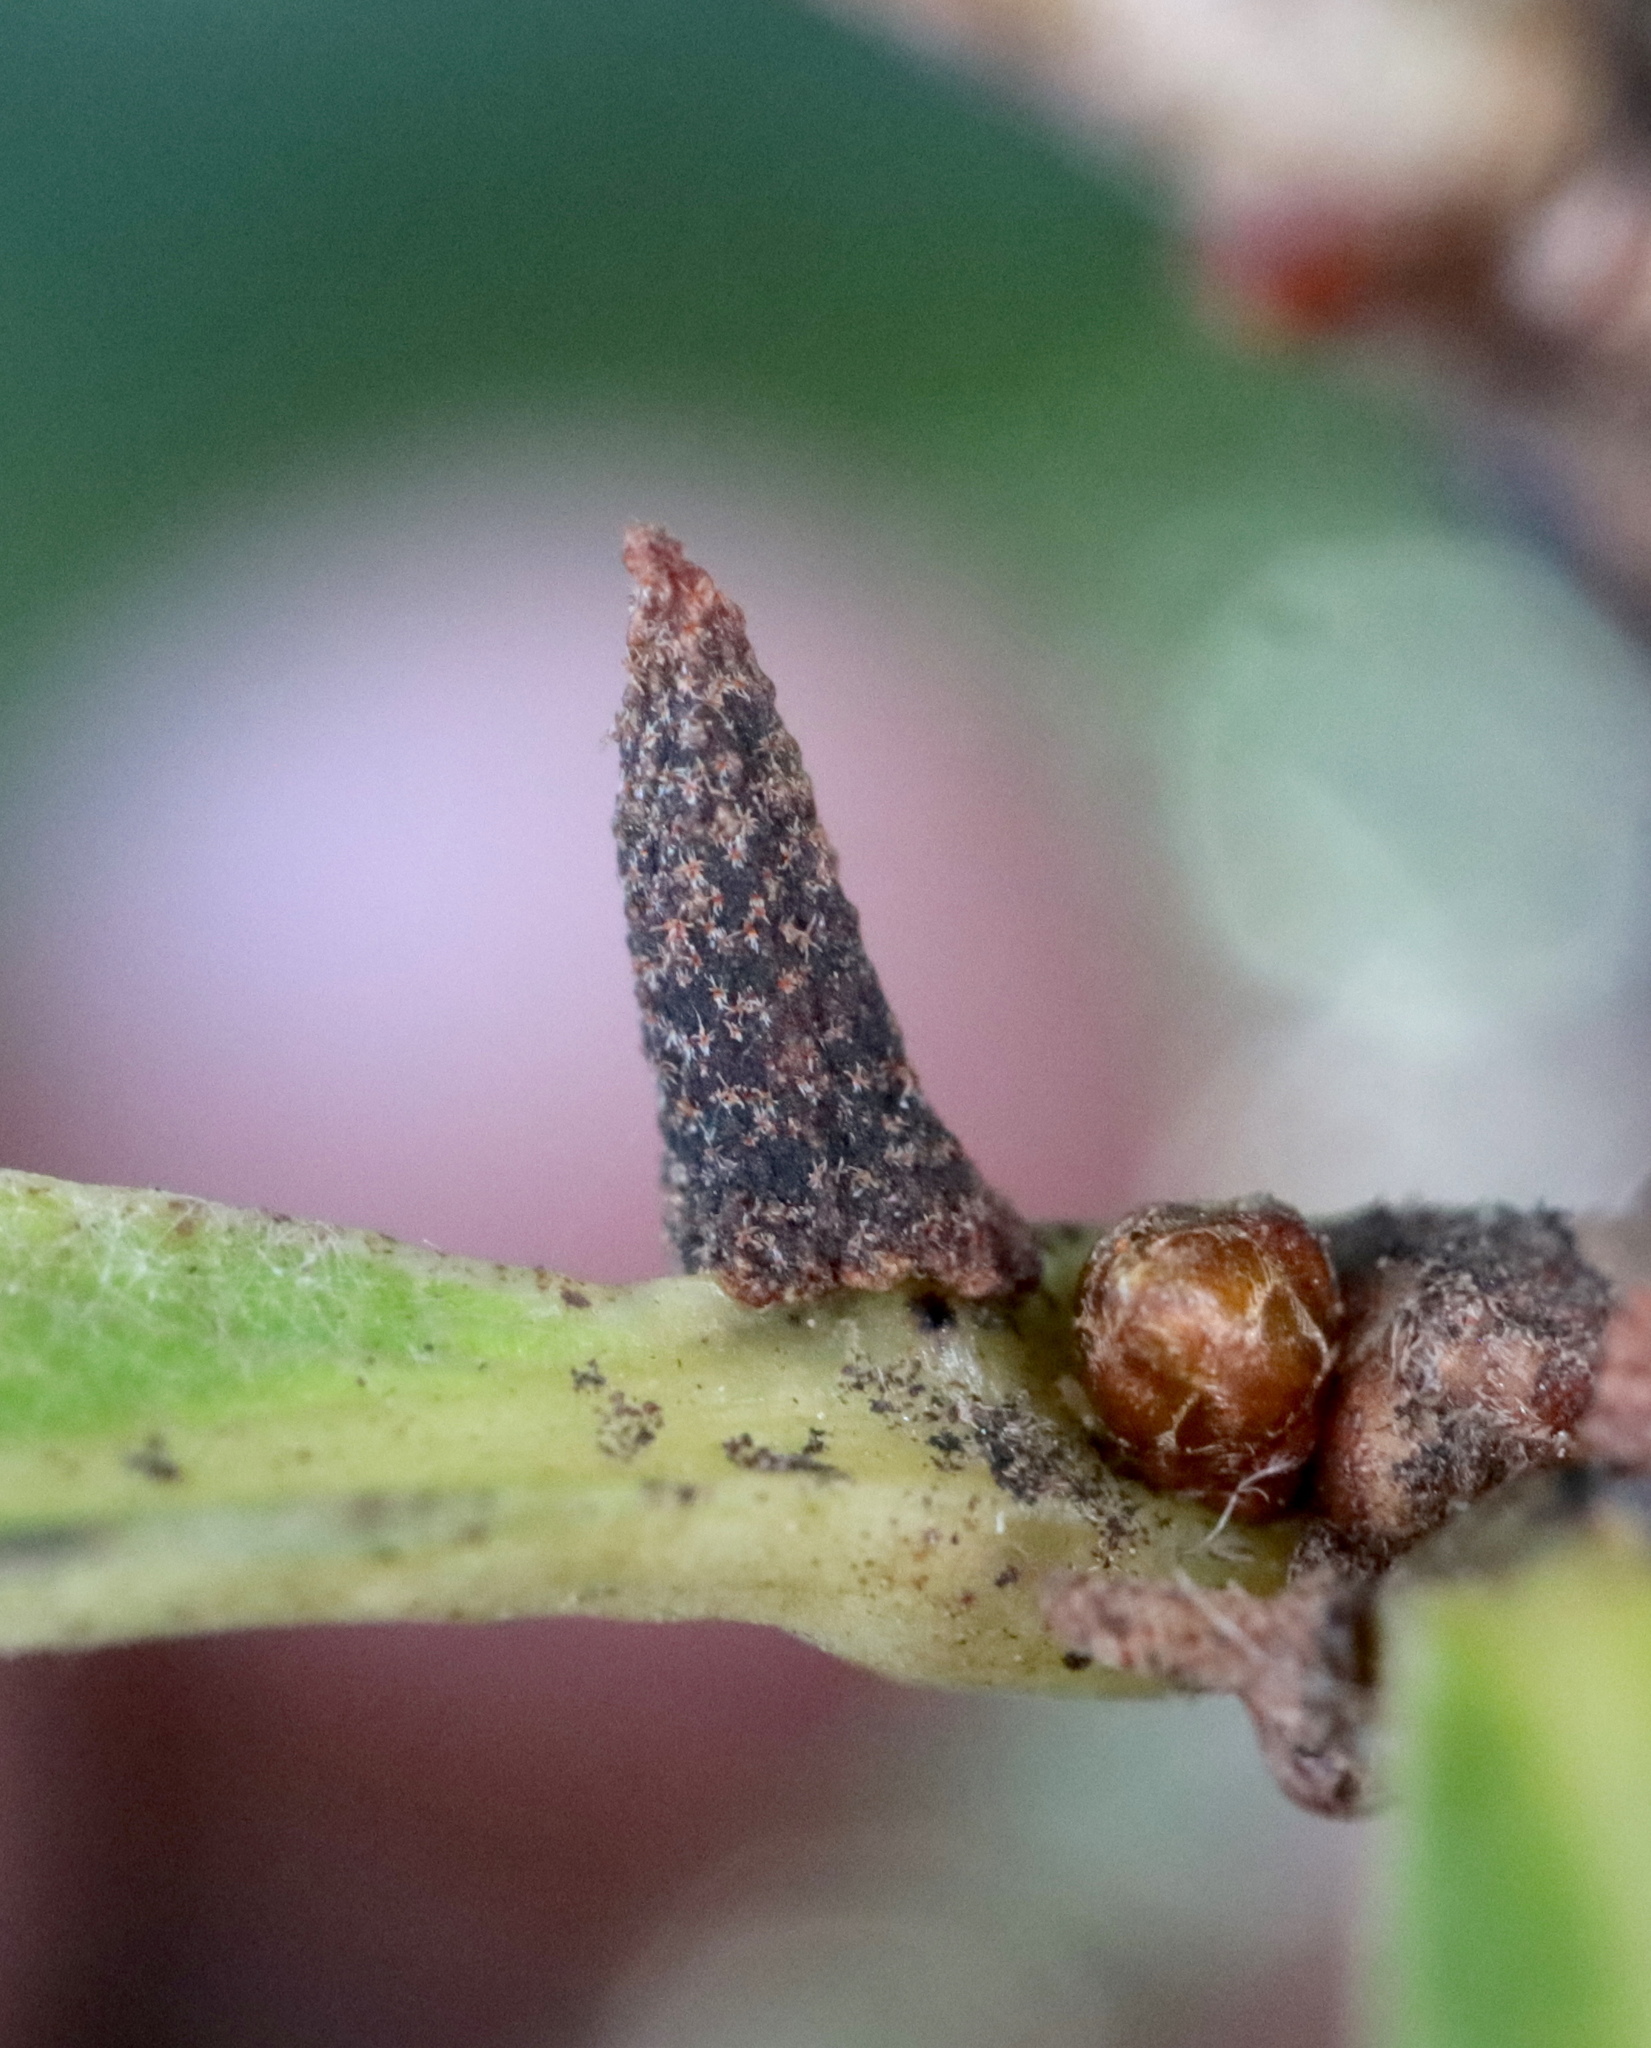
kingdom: Animalia
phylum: Arthropoda
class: Insecta
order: Hymenoptera
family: Cynipidae
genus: Zopheroteras
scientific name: Zopheroteras
